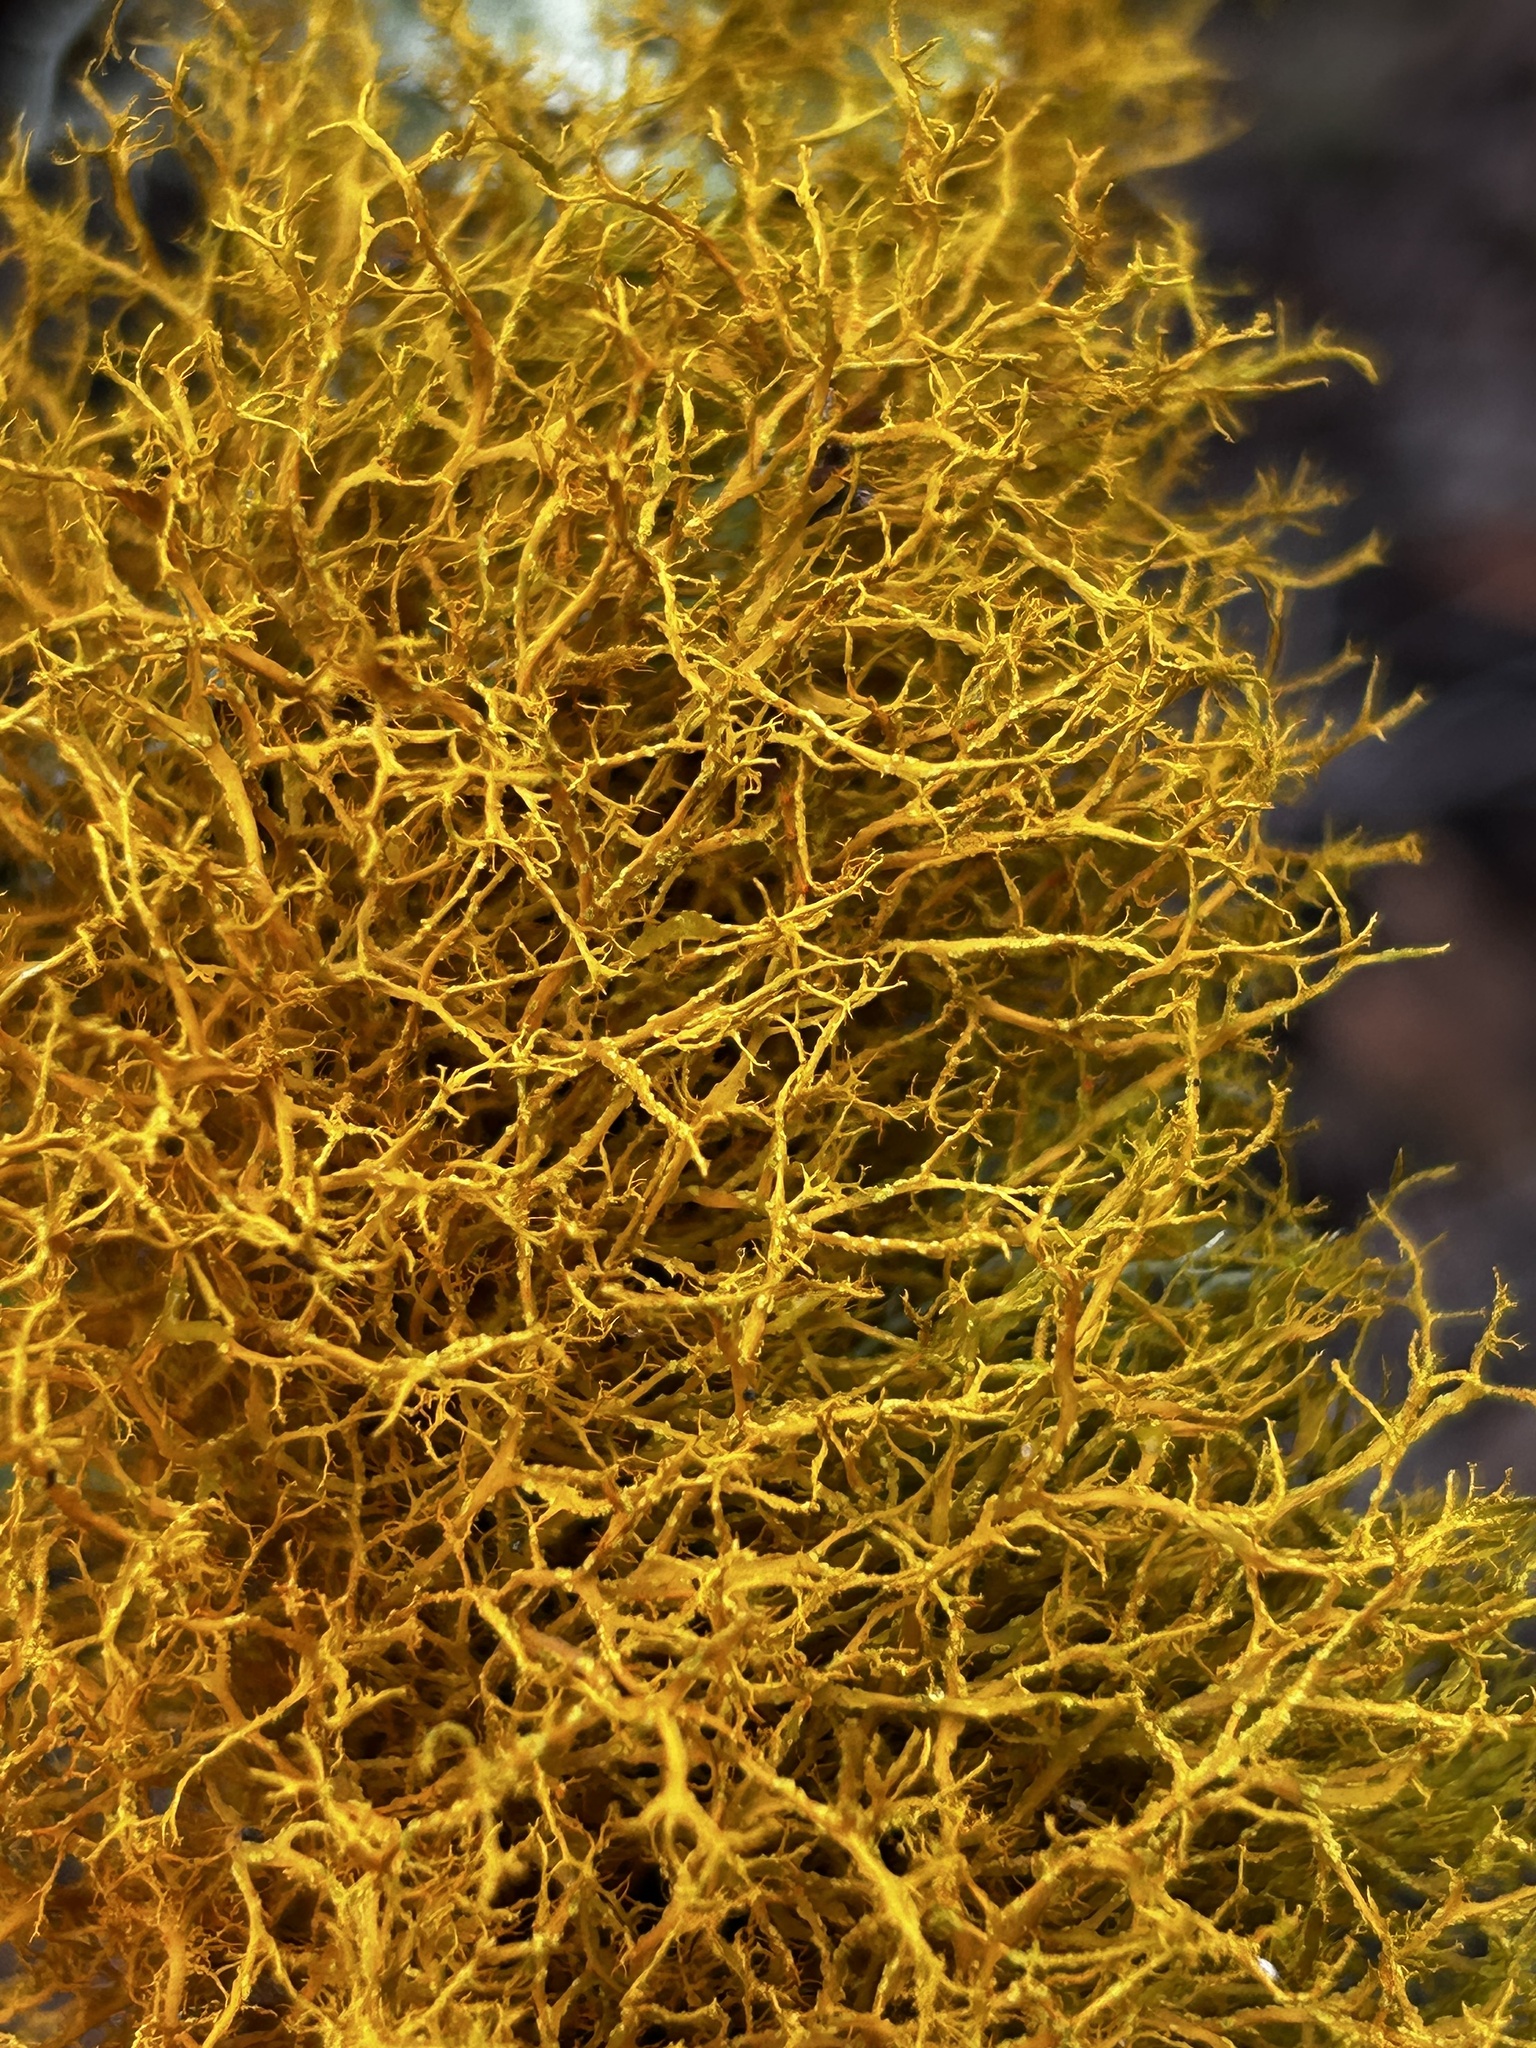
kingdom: Fungi
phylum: Ascomycota
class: Lecanoromycetes
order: Teloschistales
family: Teloschistaceae
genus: Teloschistes
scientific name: Teloschistes flavicans
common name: Golden hair-lichen
